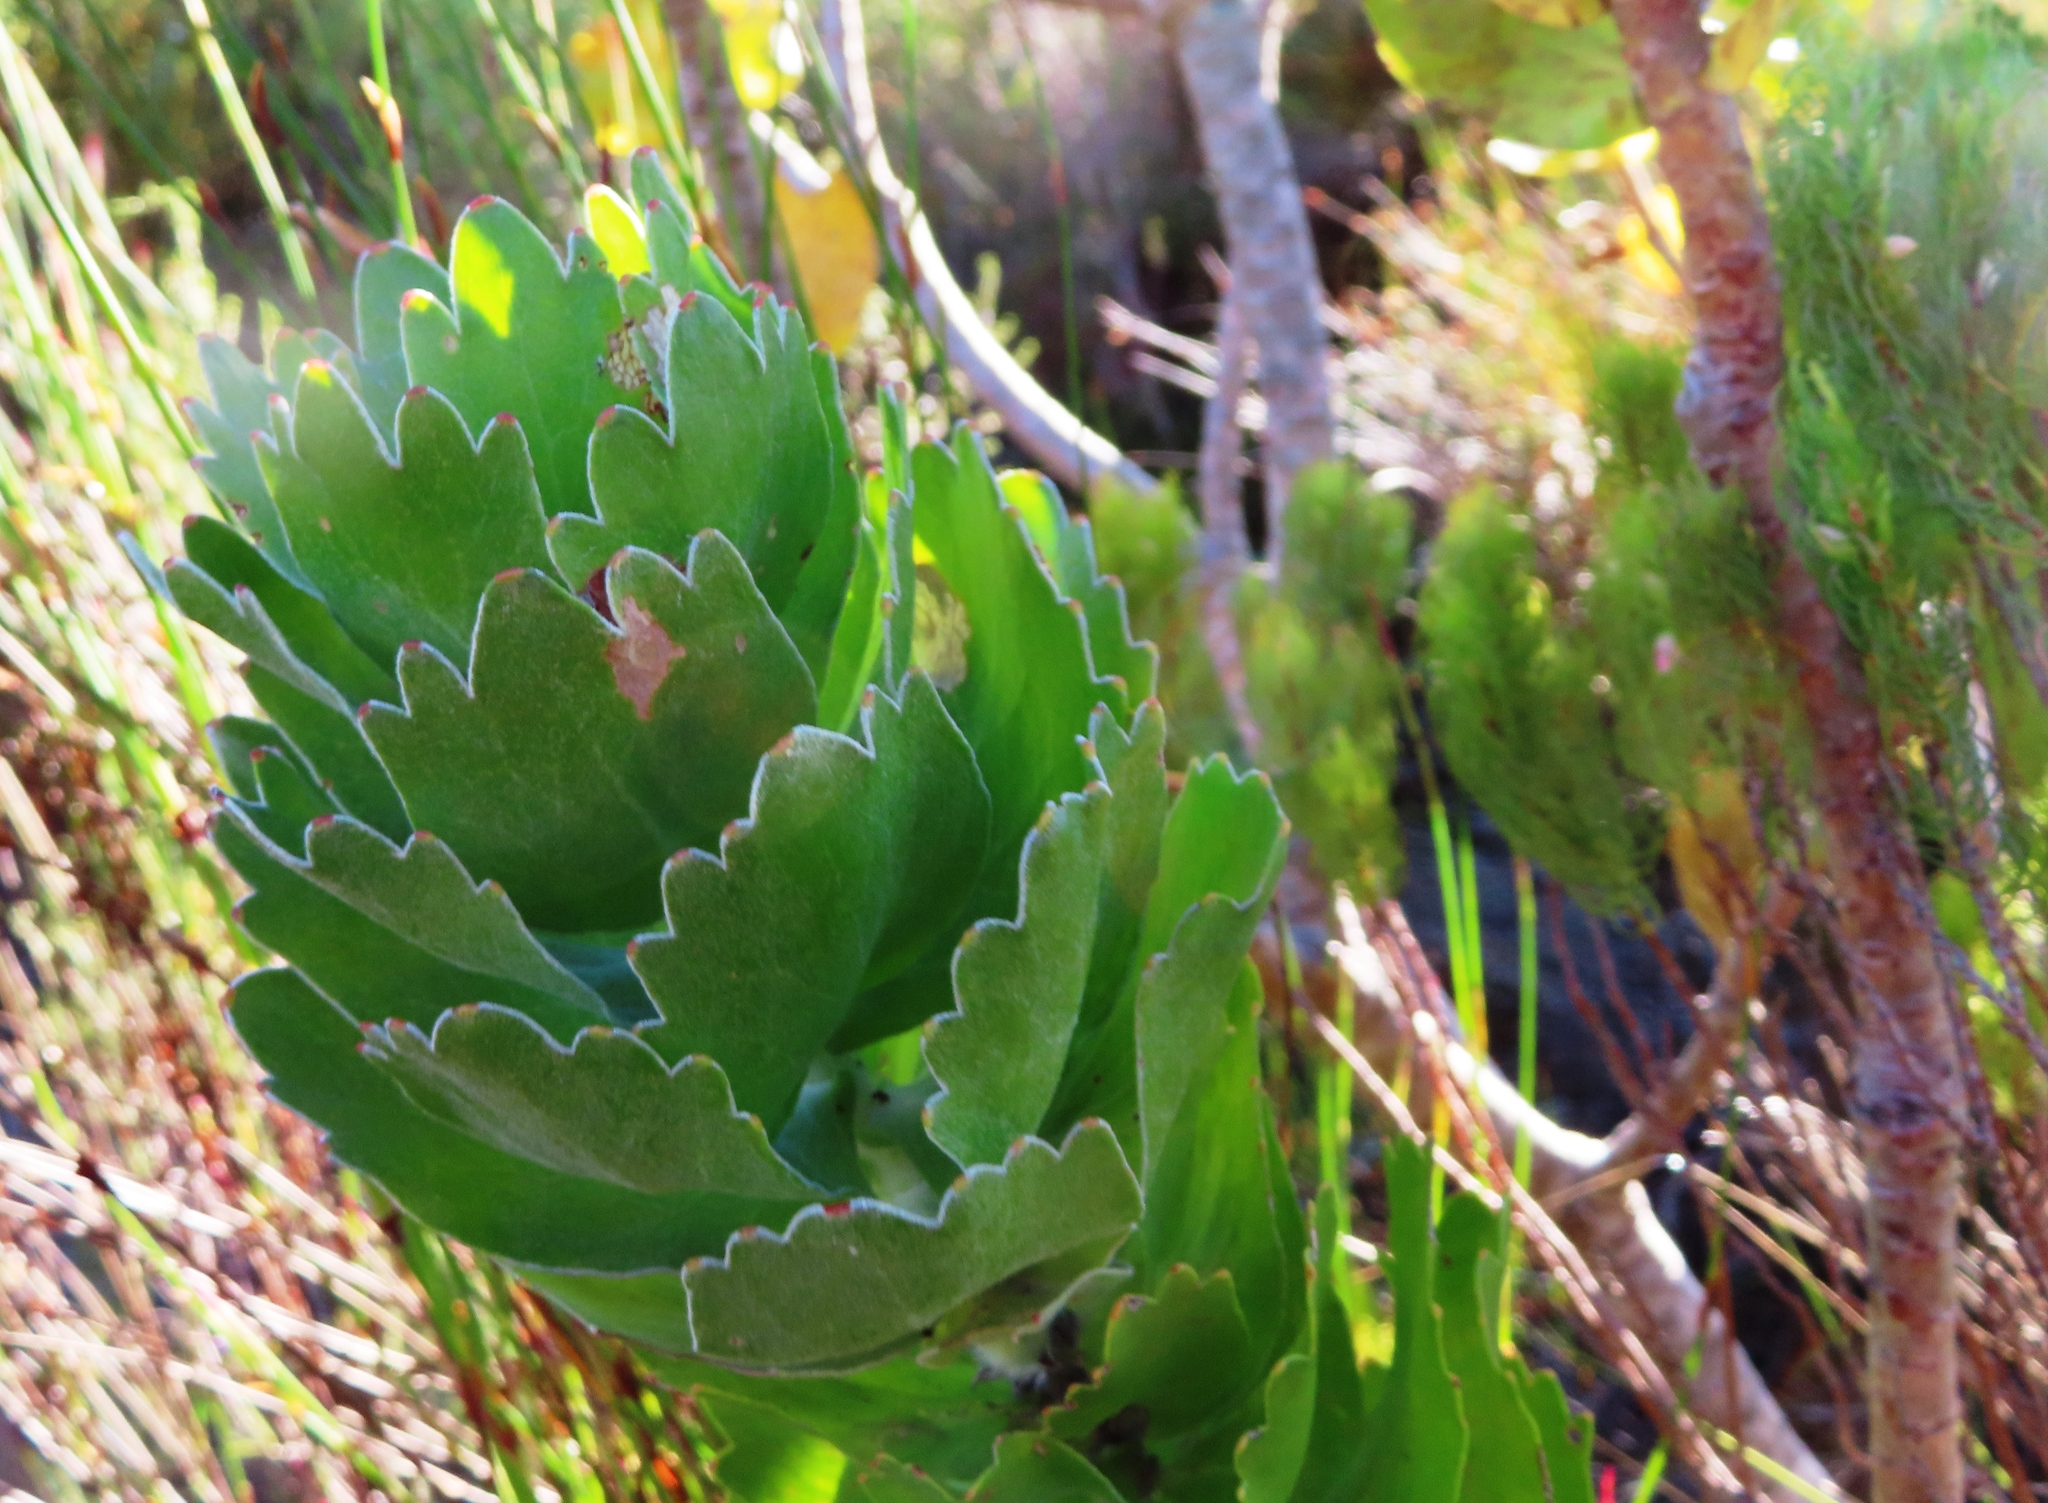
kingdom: Plantae
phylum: Tracheophyta
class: Magnoliopsida
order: Proteales
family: Proteaceae
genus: Leucospermum
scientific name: Leucospermum patersonii
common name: False tree pincushion
